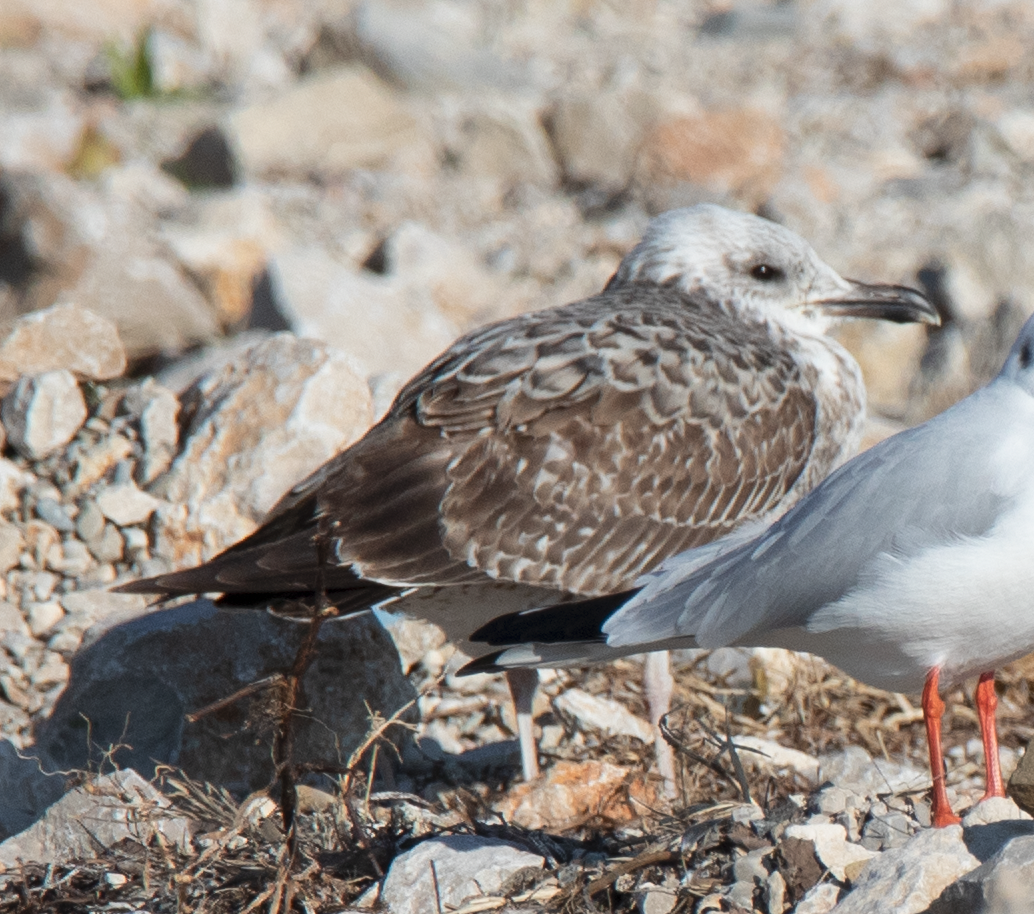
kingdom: Animalia
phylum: Chordata
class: Aves
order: Charadriiformes
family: Laridae
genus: Larus
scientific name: Larus michahellis
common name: Yellow-legged gull
